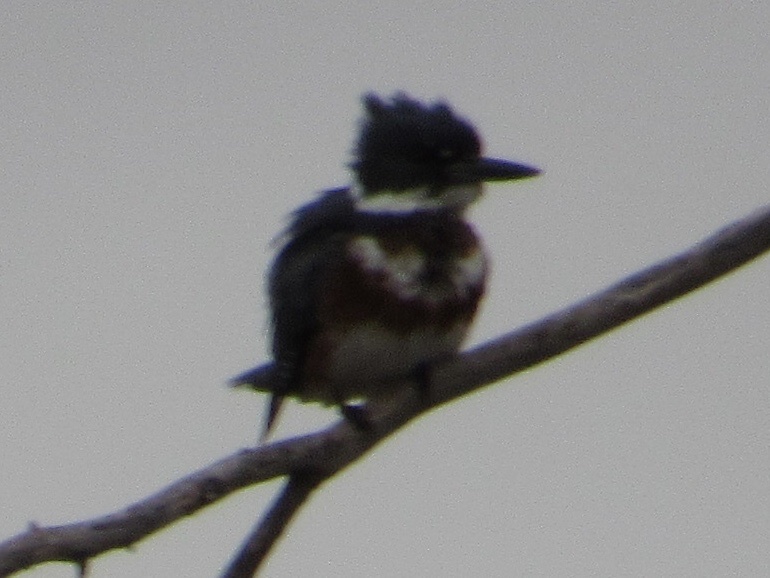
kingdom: Animalia
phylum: Chordata
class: Aves
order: Coraciiformes
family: Alcedinidae
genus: Megaceryle
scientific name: Megaceryle alcyon
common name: Belted kingfisher
